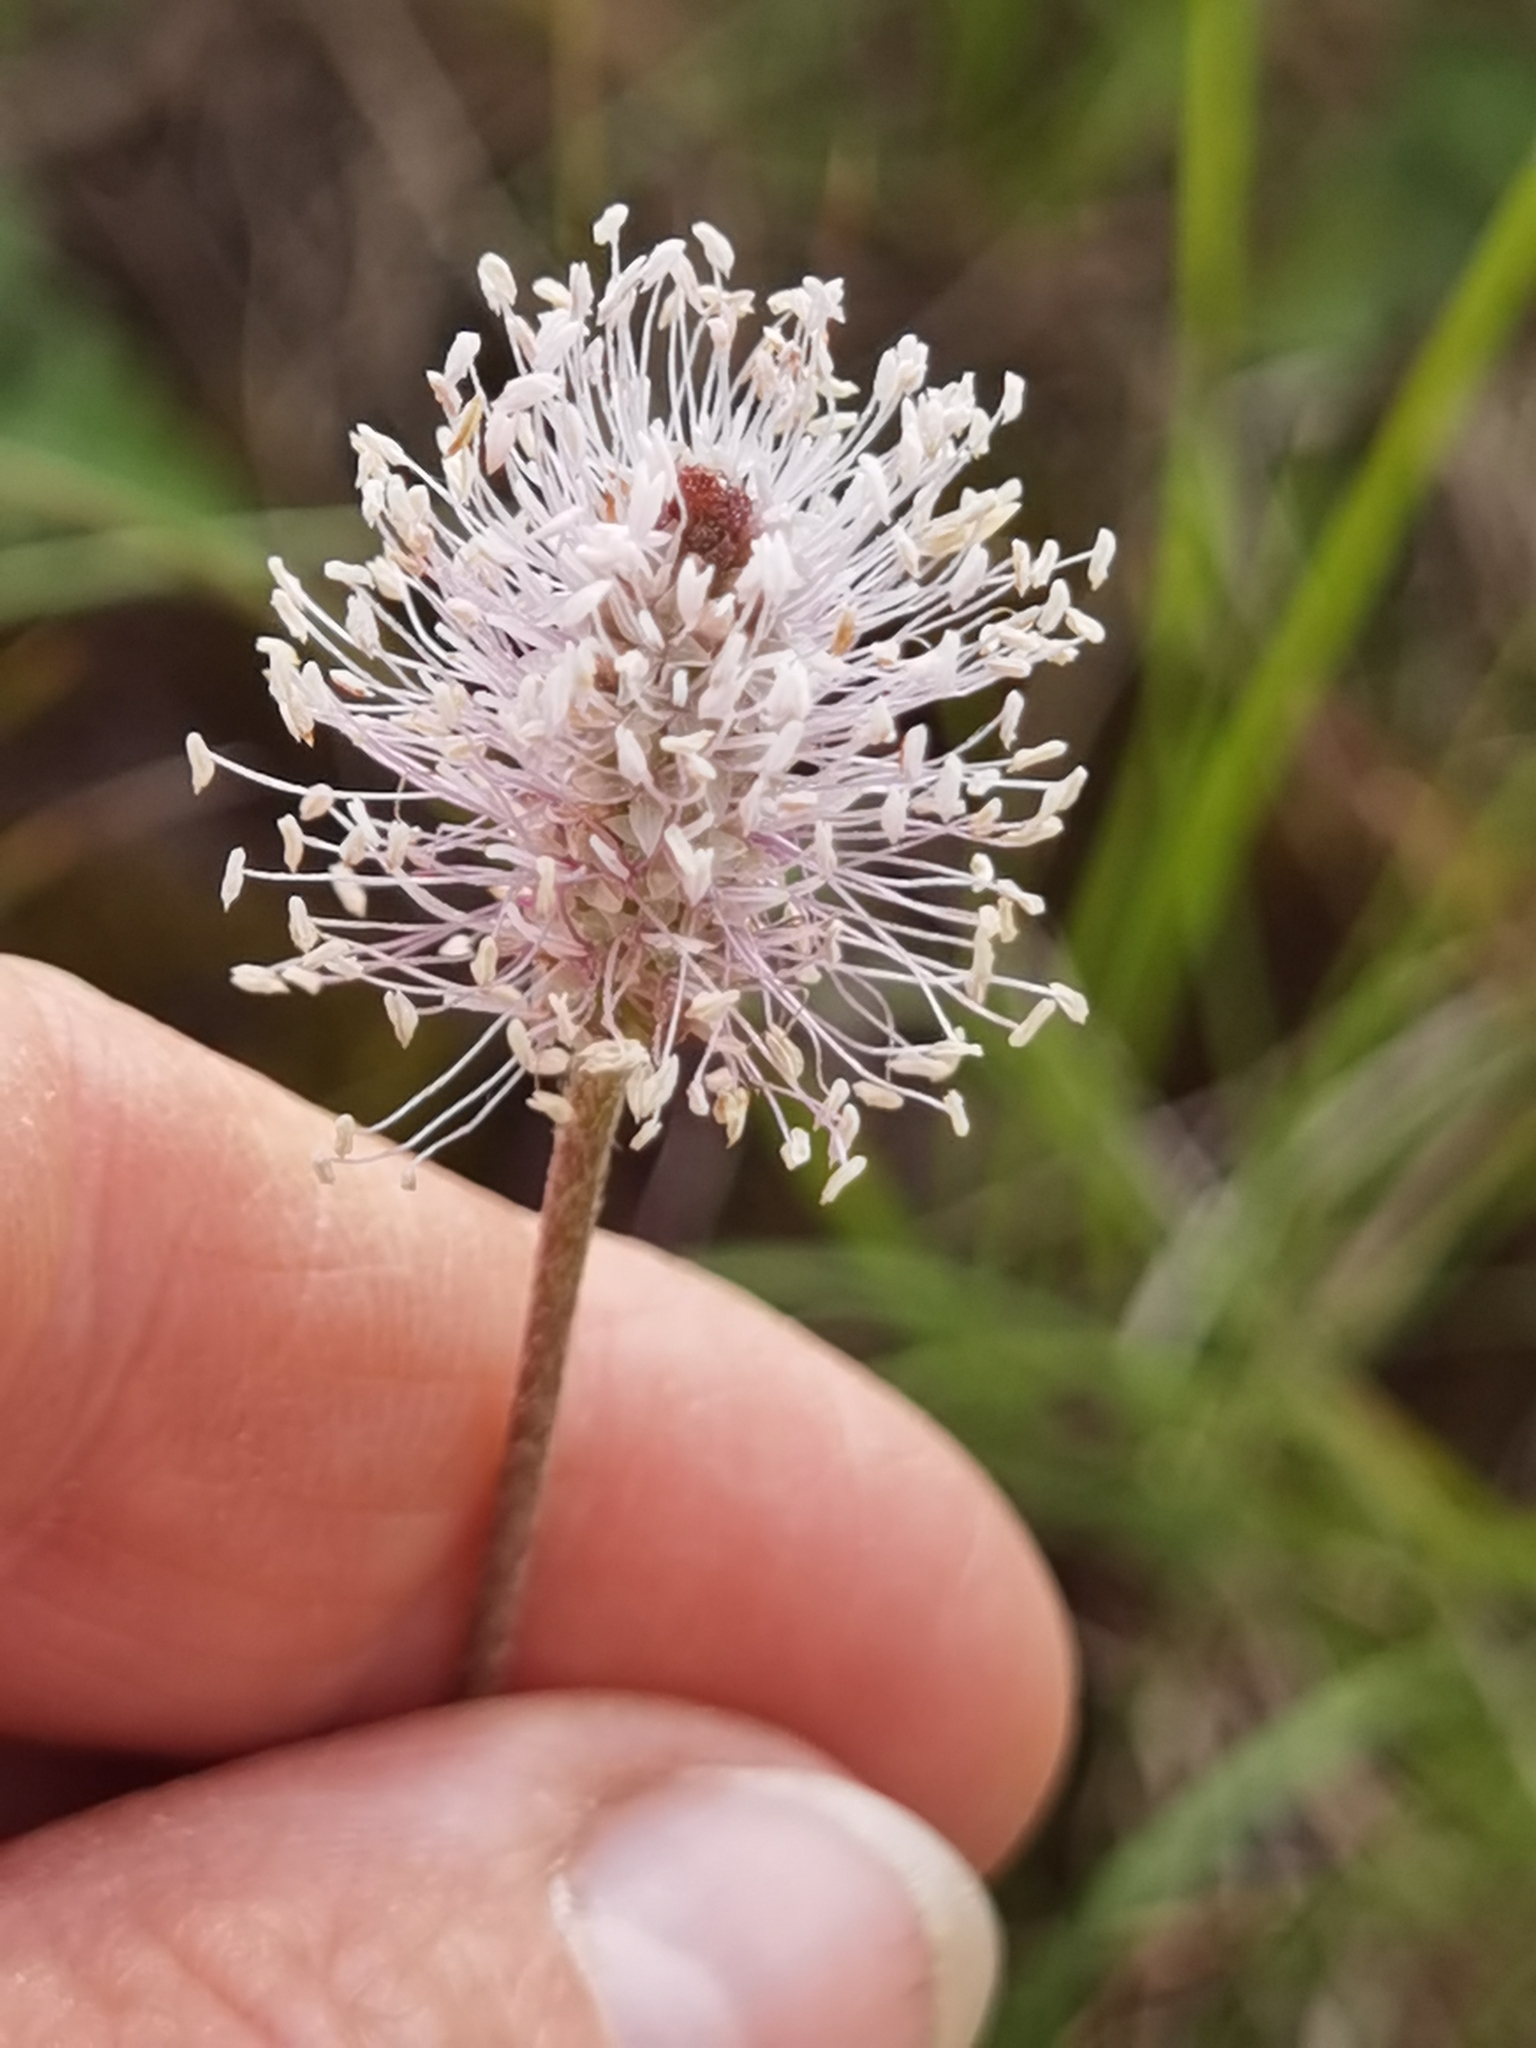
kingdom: Plantae
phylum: Tracheophyta
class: Magnoliopsida
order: Lamiales
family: Plantaginaceae
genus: Plantago
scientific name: Plantago media
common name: Hoary plantain
